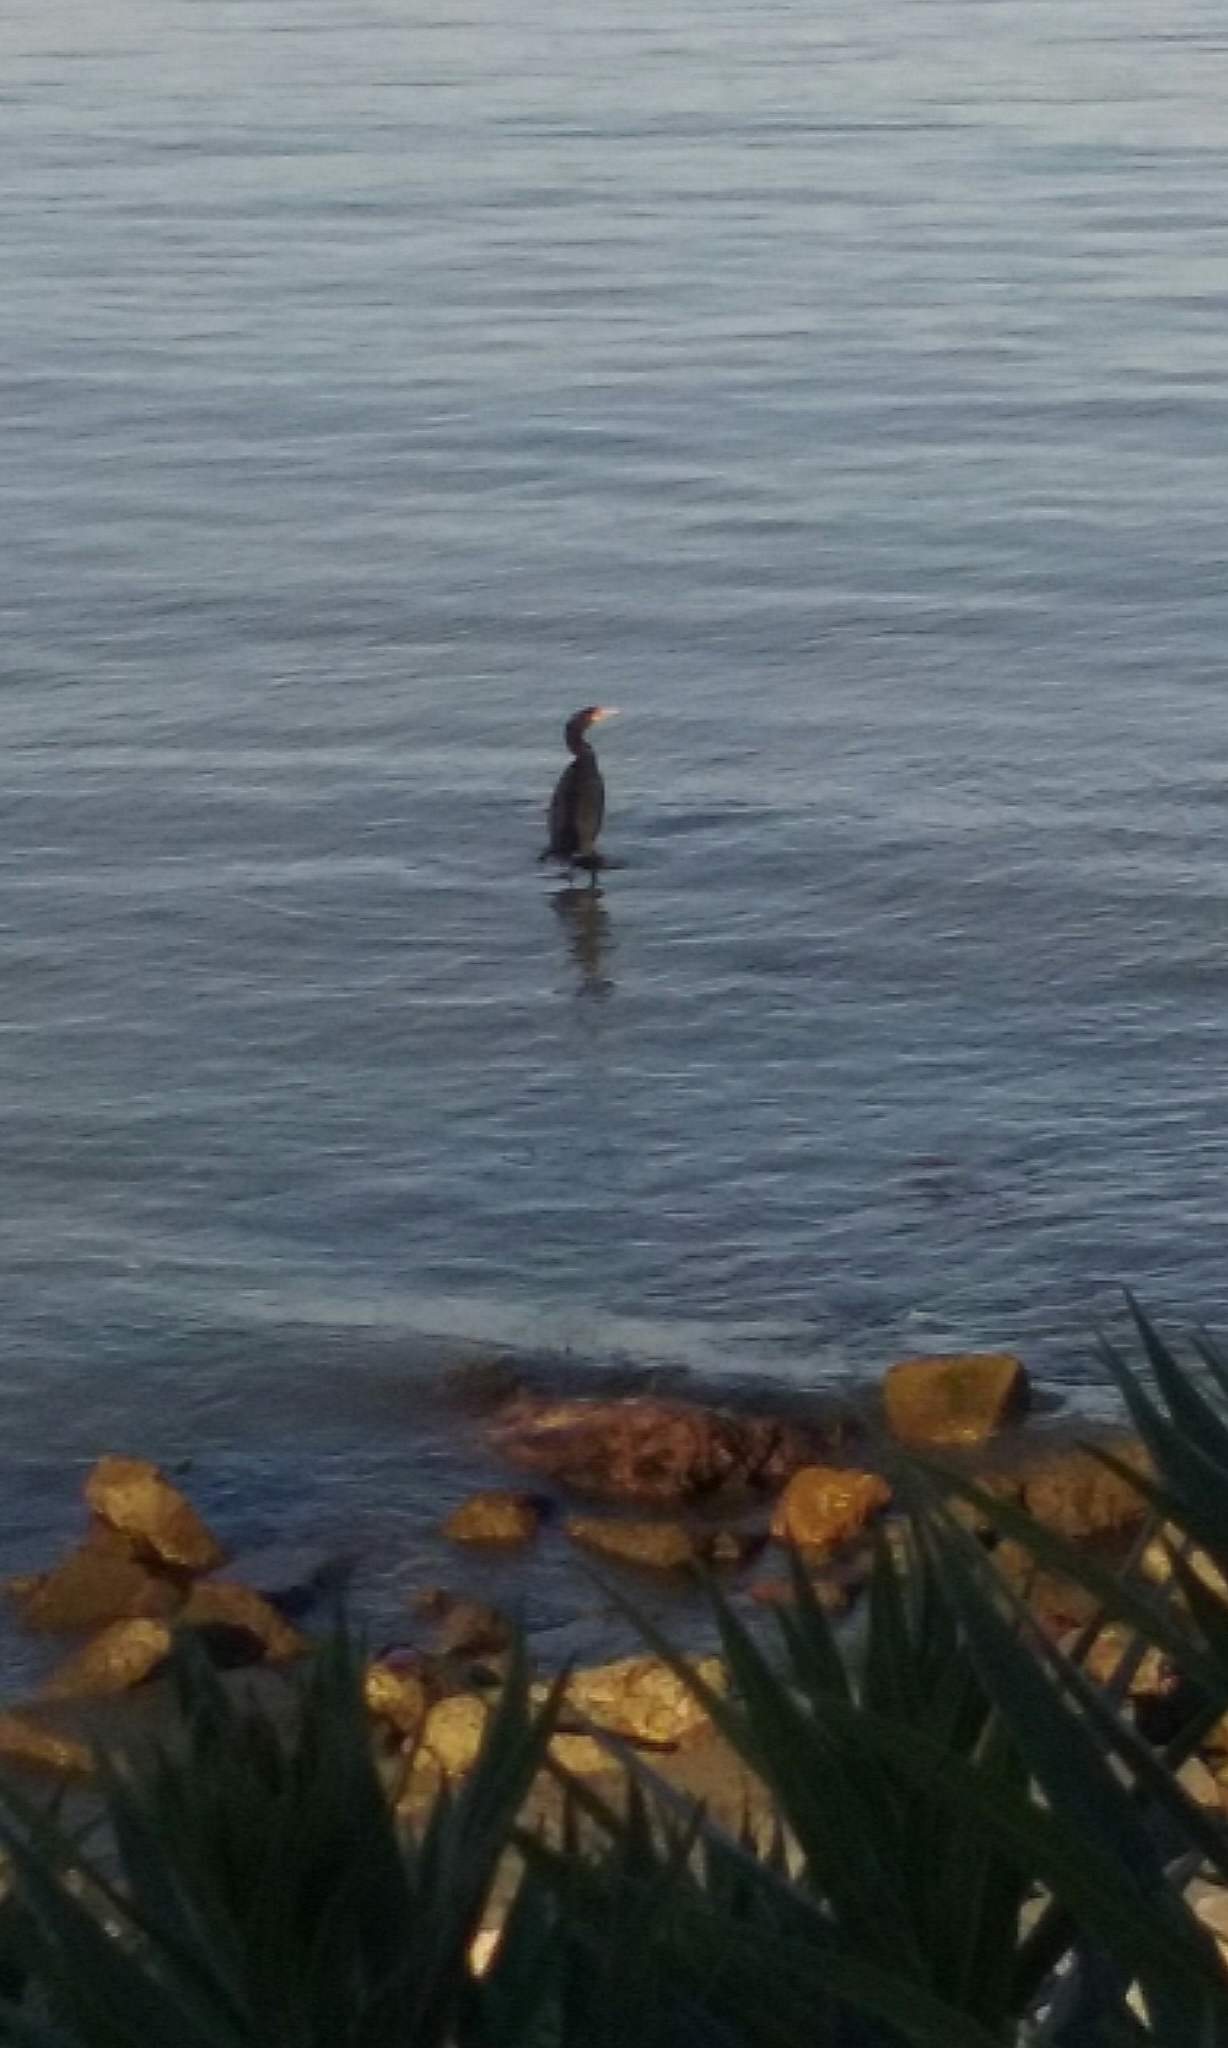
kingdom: Animalia
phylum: Chordata
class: Aves
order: Suliformes
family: Phalacrocoracidae
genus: Phalacrocorax
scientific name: Phalacrocorax auritus
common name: Double-crested cormorant
